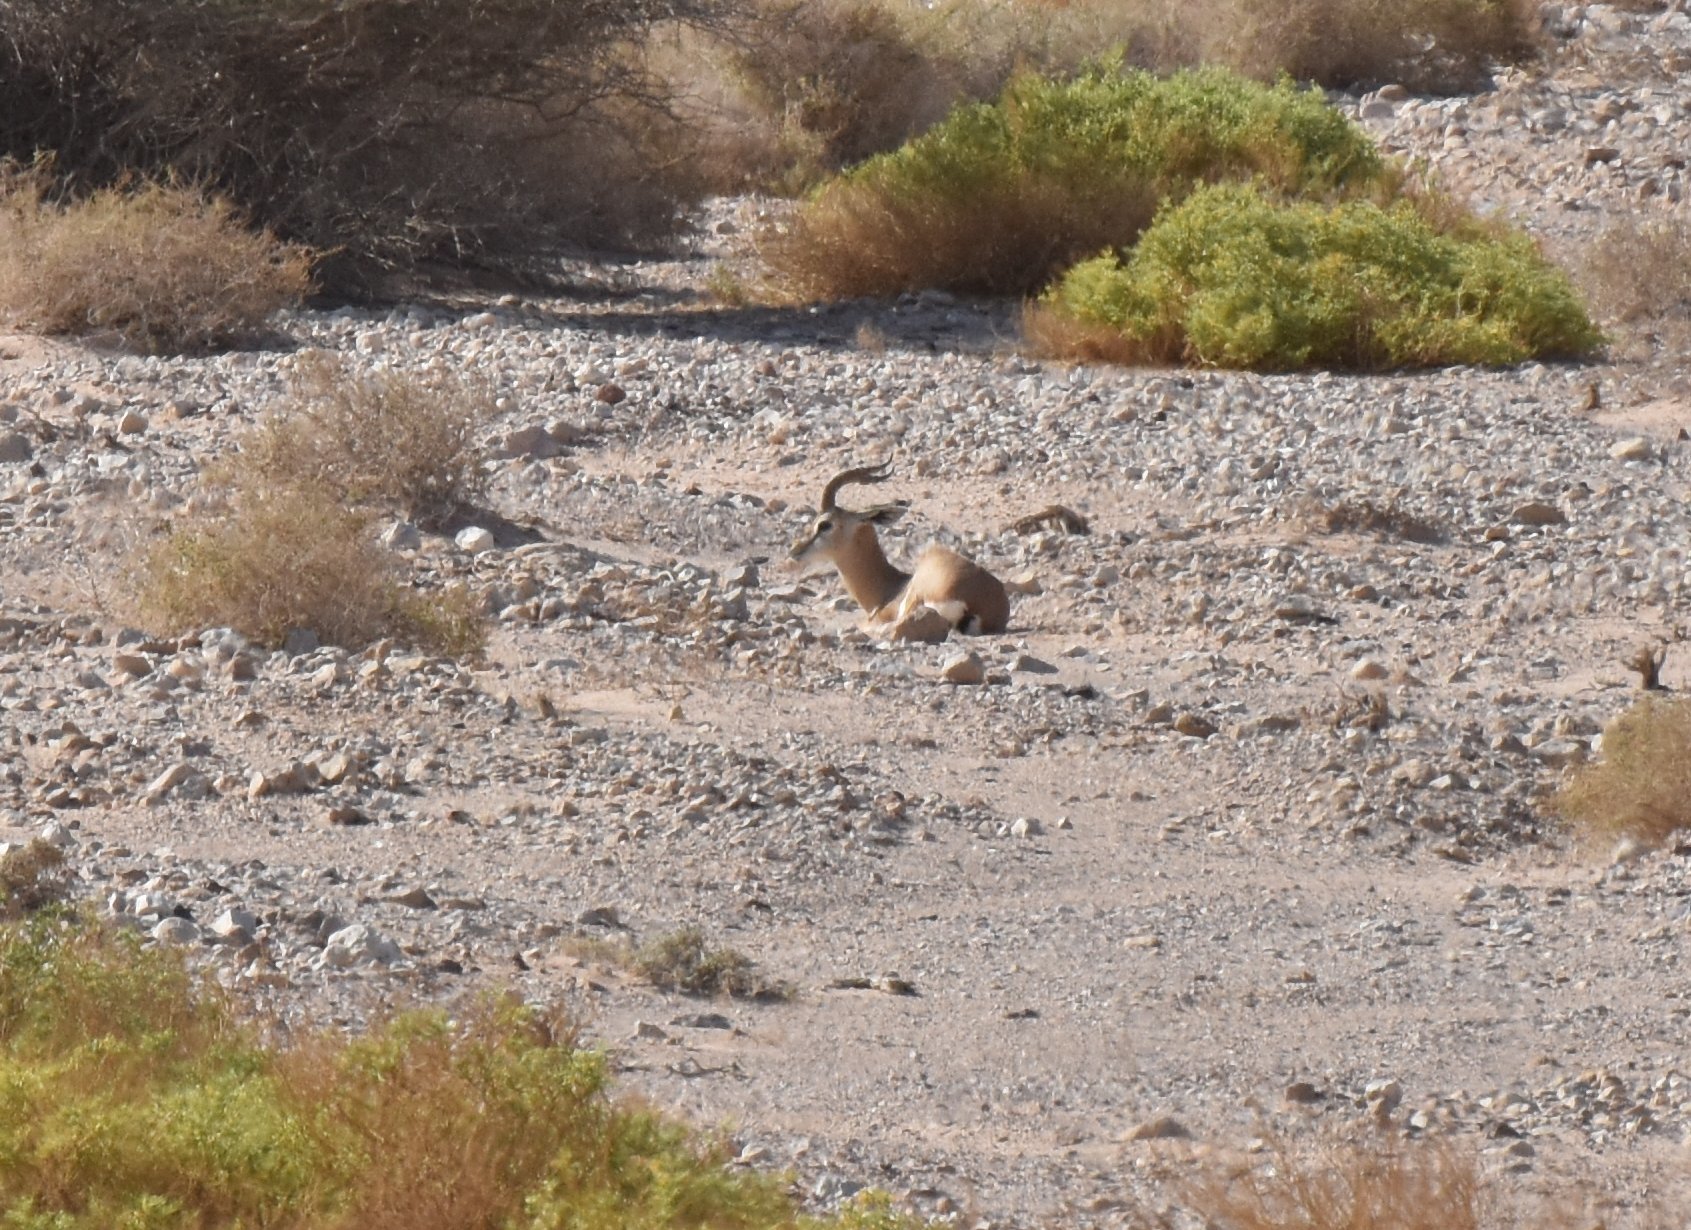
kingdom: Animalia
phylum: Chordata
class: Mammalia
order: Artiodactyla
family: Bovidae
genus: Gazella
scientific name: Gazella dorcas
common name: Dorcas gazelle
